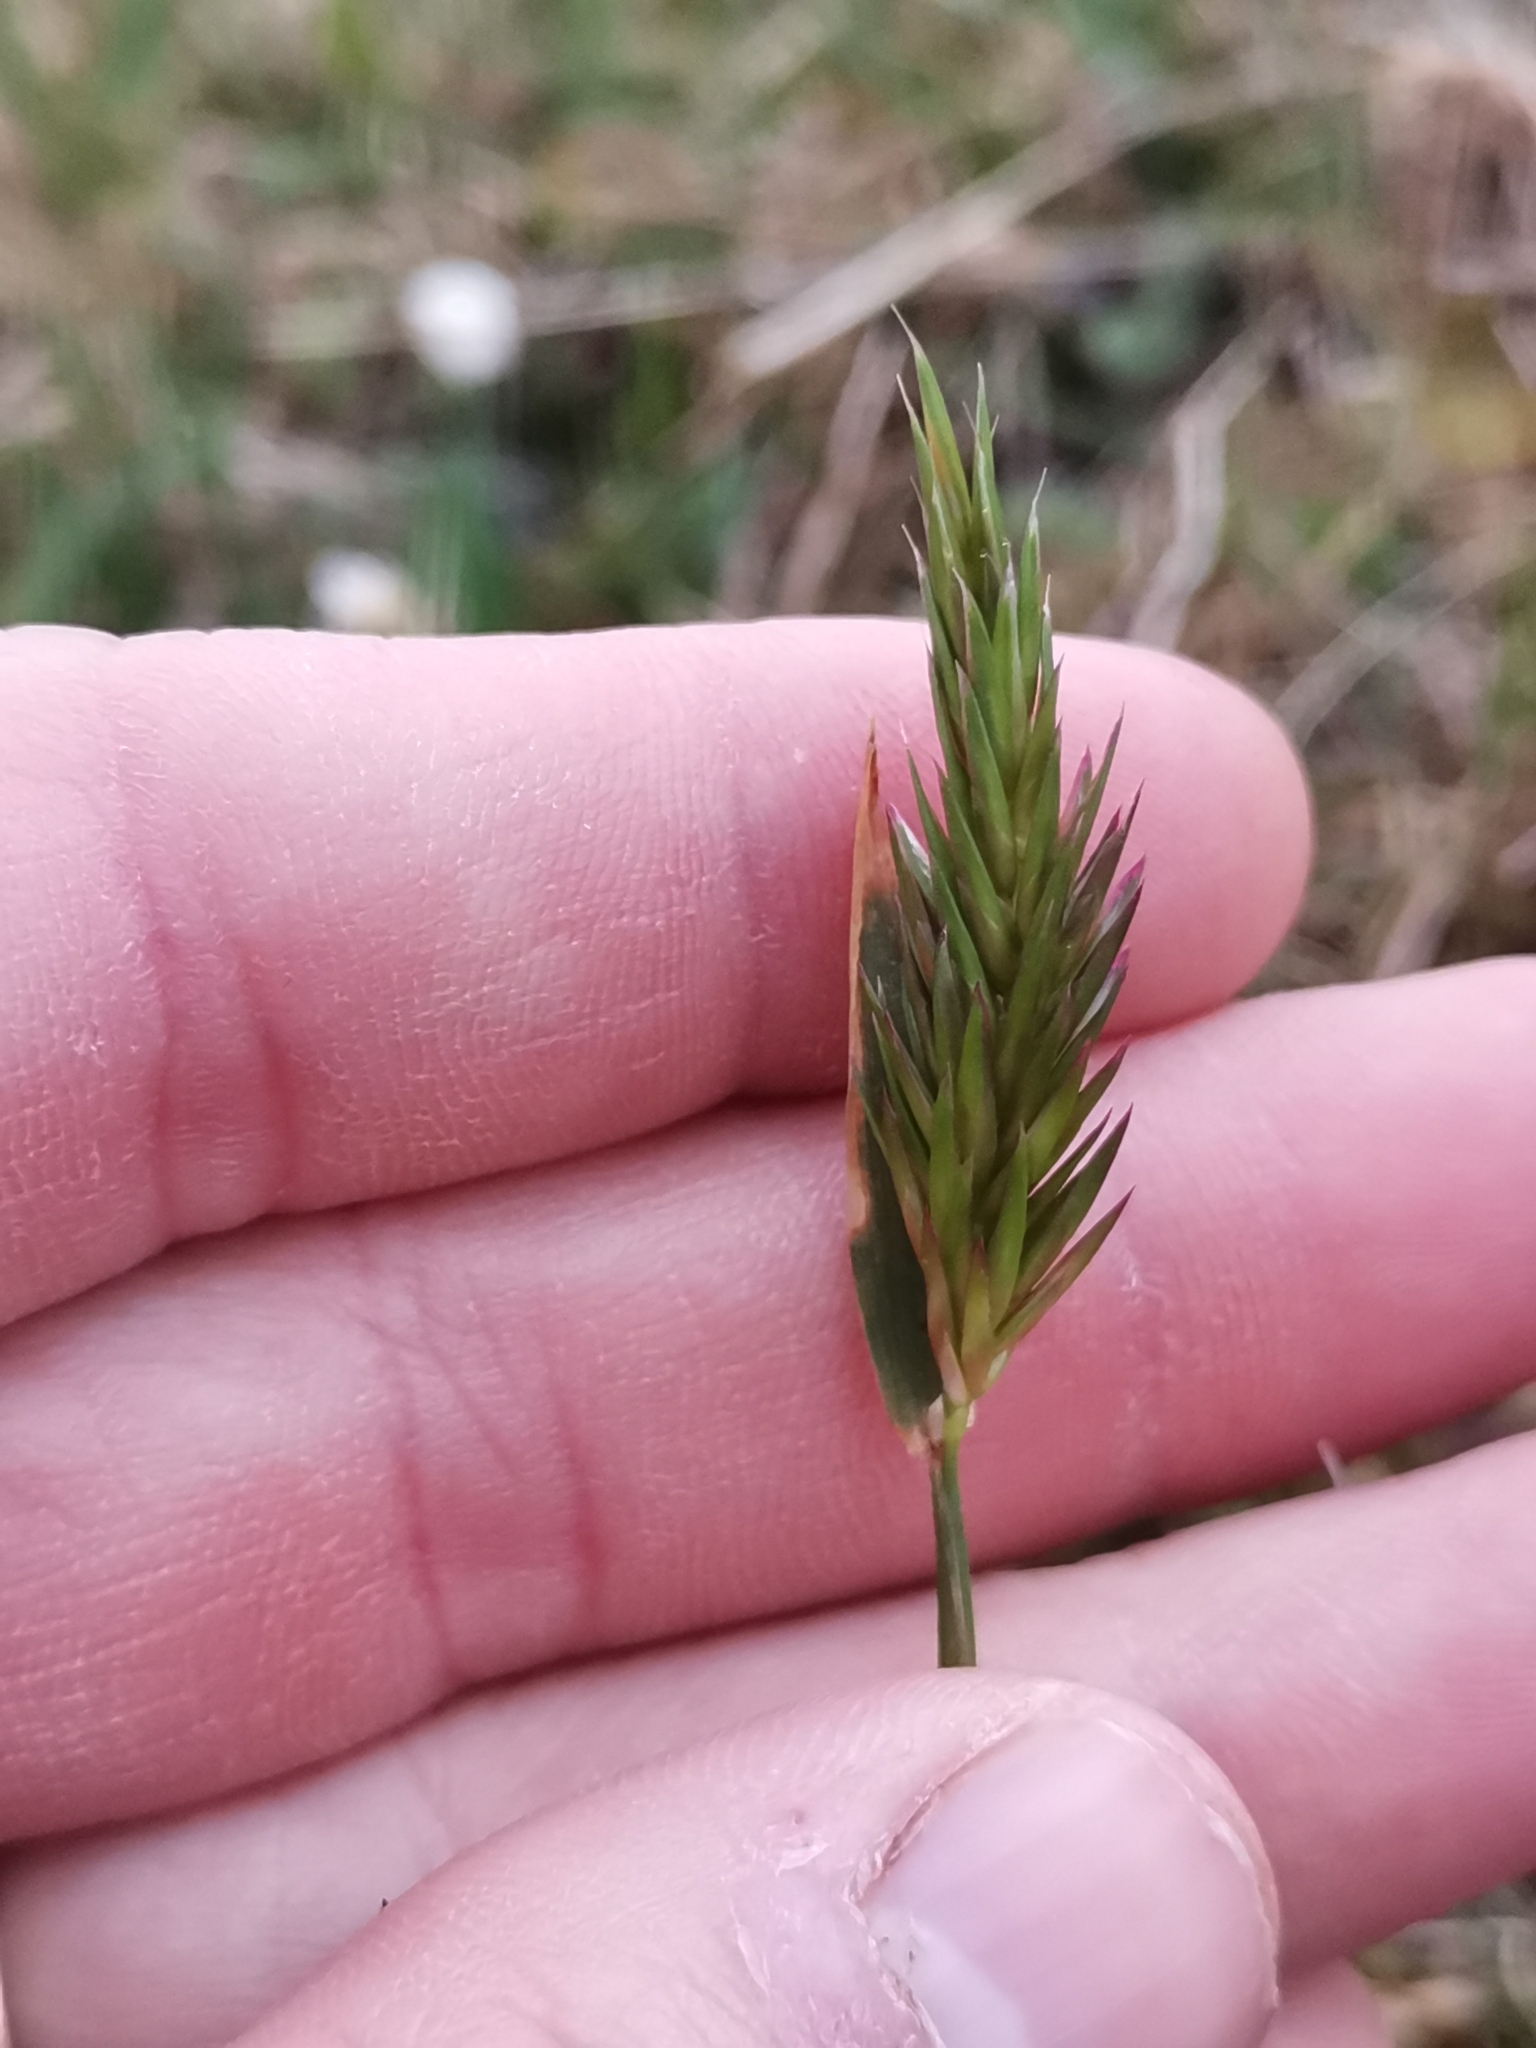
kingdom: Plantae
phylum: Tracheophyta
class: Liliopsida
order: Poales
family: Poaceae
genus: Anthoxanthum
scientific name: Anthoxanthum odoratum
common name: Sweet vernalgrass
